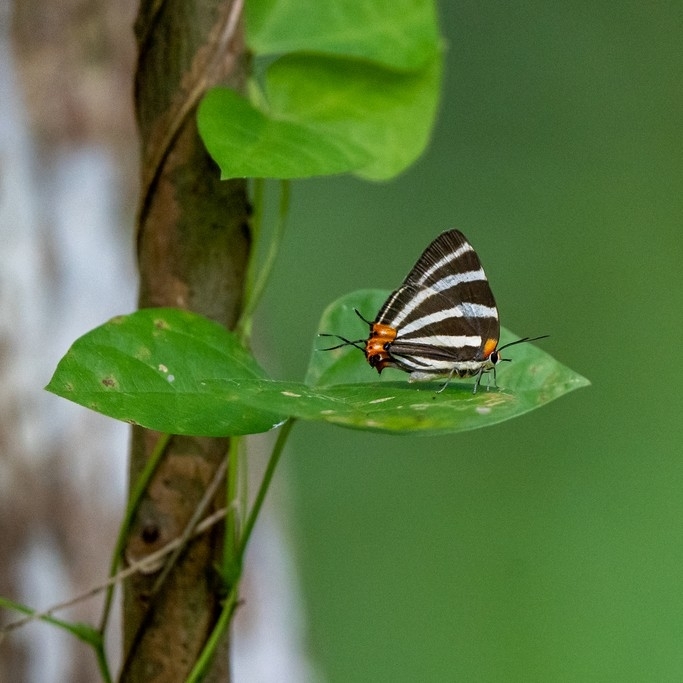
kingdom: Animalia
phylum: Arthropoda
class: Insecta
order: Lepidoptera
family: Lycaenidae
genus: Thecla
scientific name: Thecla bathildis
